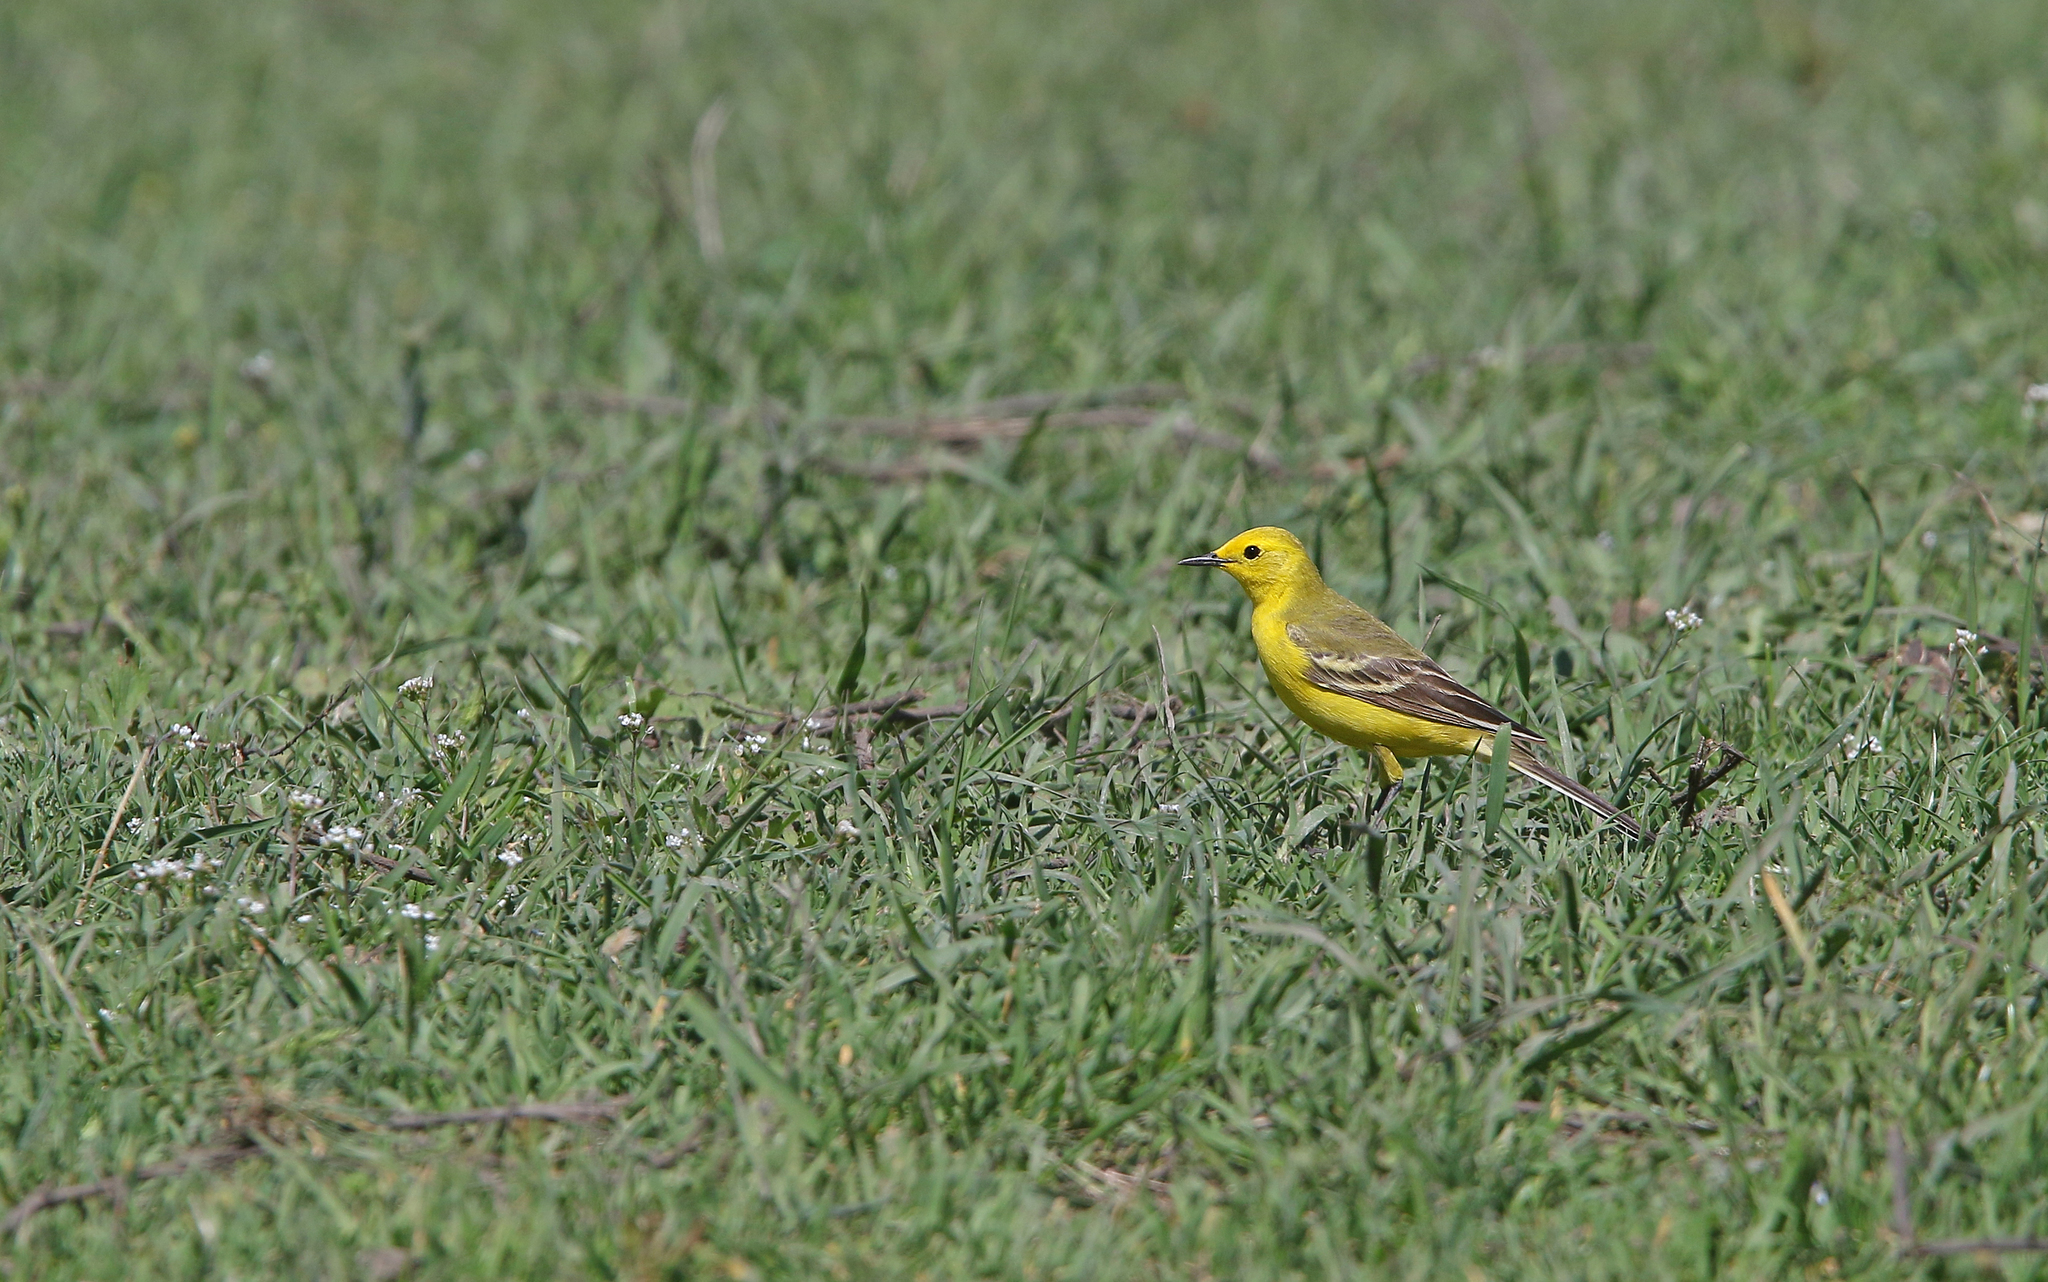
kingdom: Animalia
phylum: Chordata
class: Aves
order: Passeriformes
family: Motacillidae
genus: Motacilla
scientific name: Motacilla flava
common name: Western yellow wagtail
